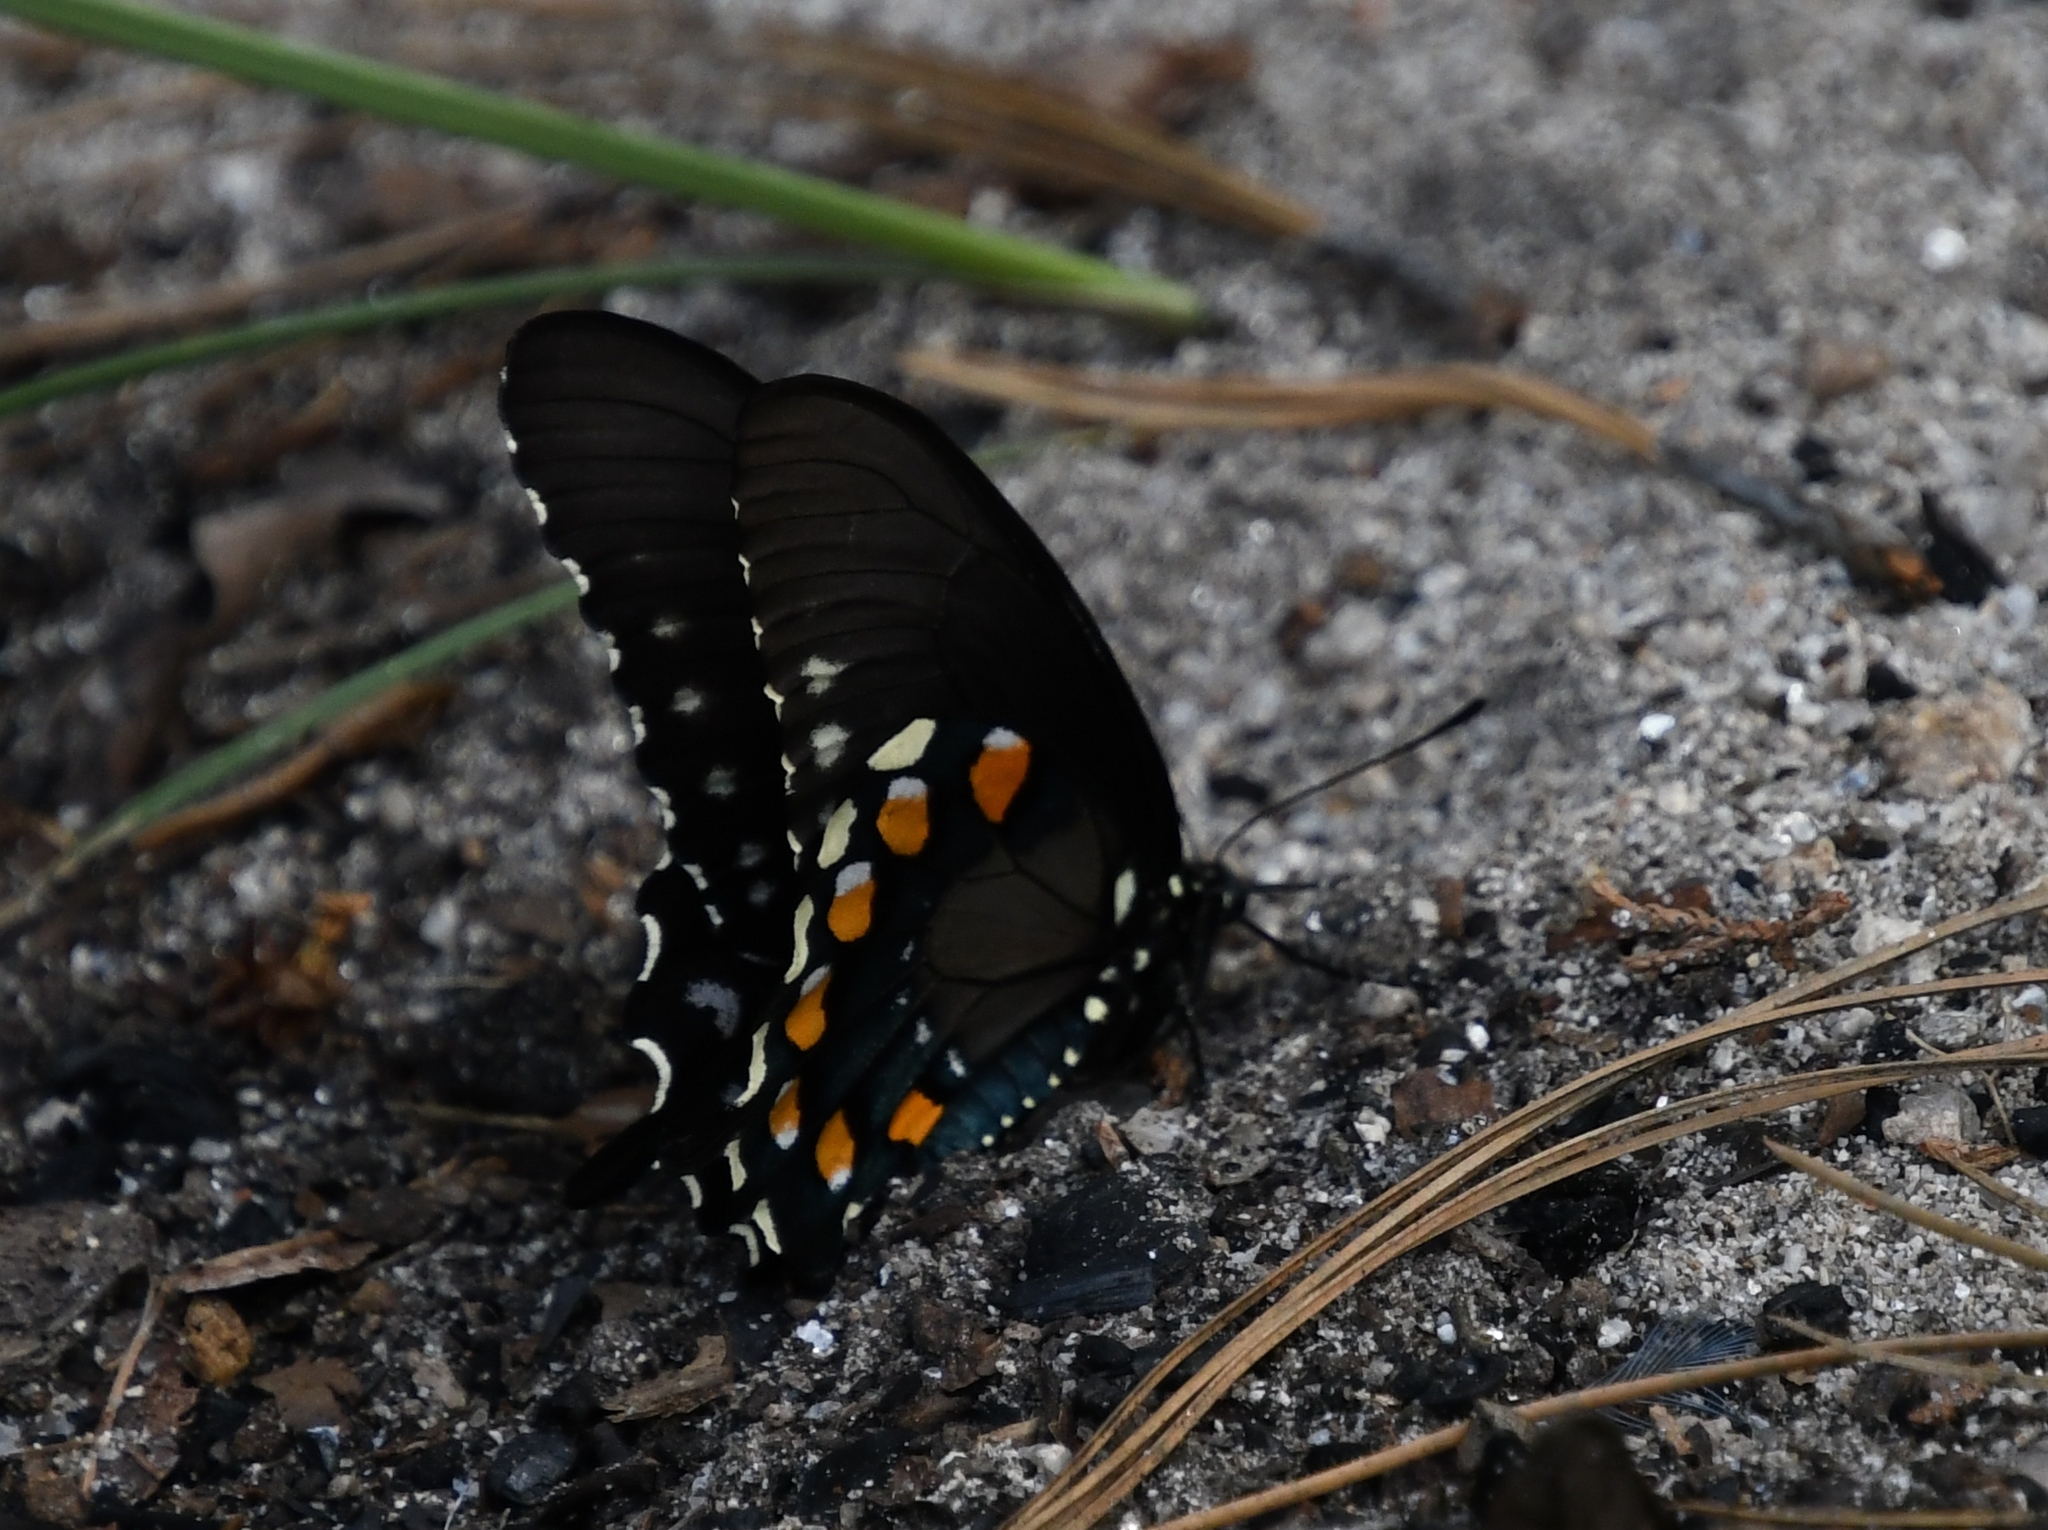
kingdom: Animalia
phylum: Arthropoda
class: Insecta
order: Lepidoptera
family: Papilionidae
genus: Battus
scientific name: Battus philenor
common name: Pipevine swallowtail
